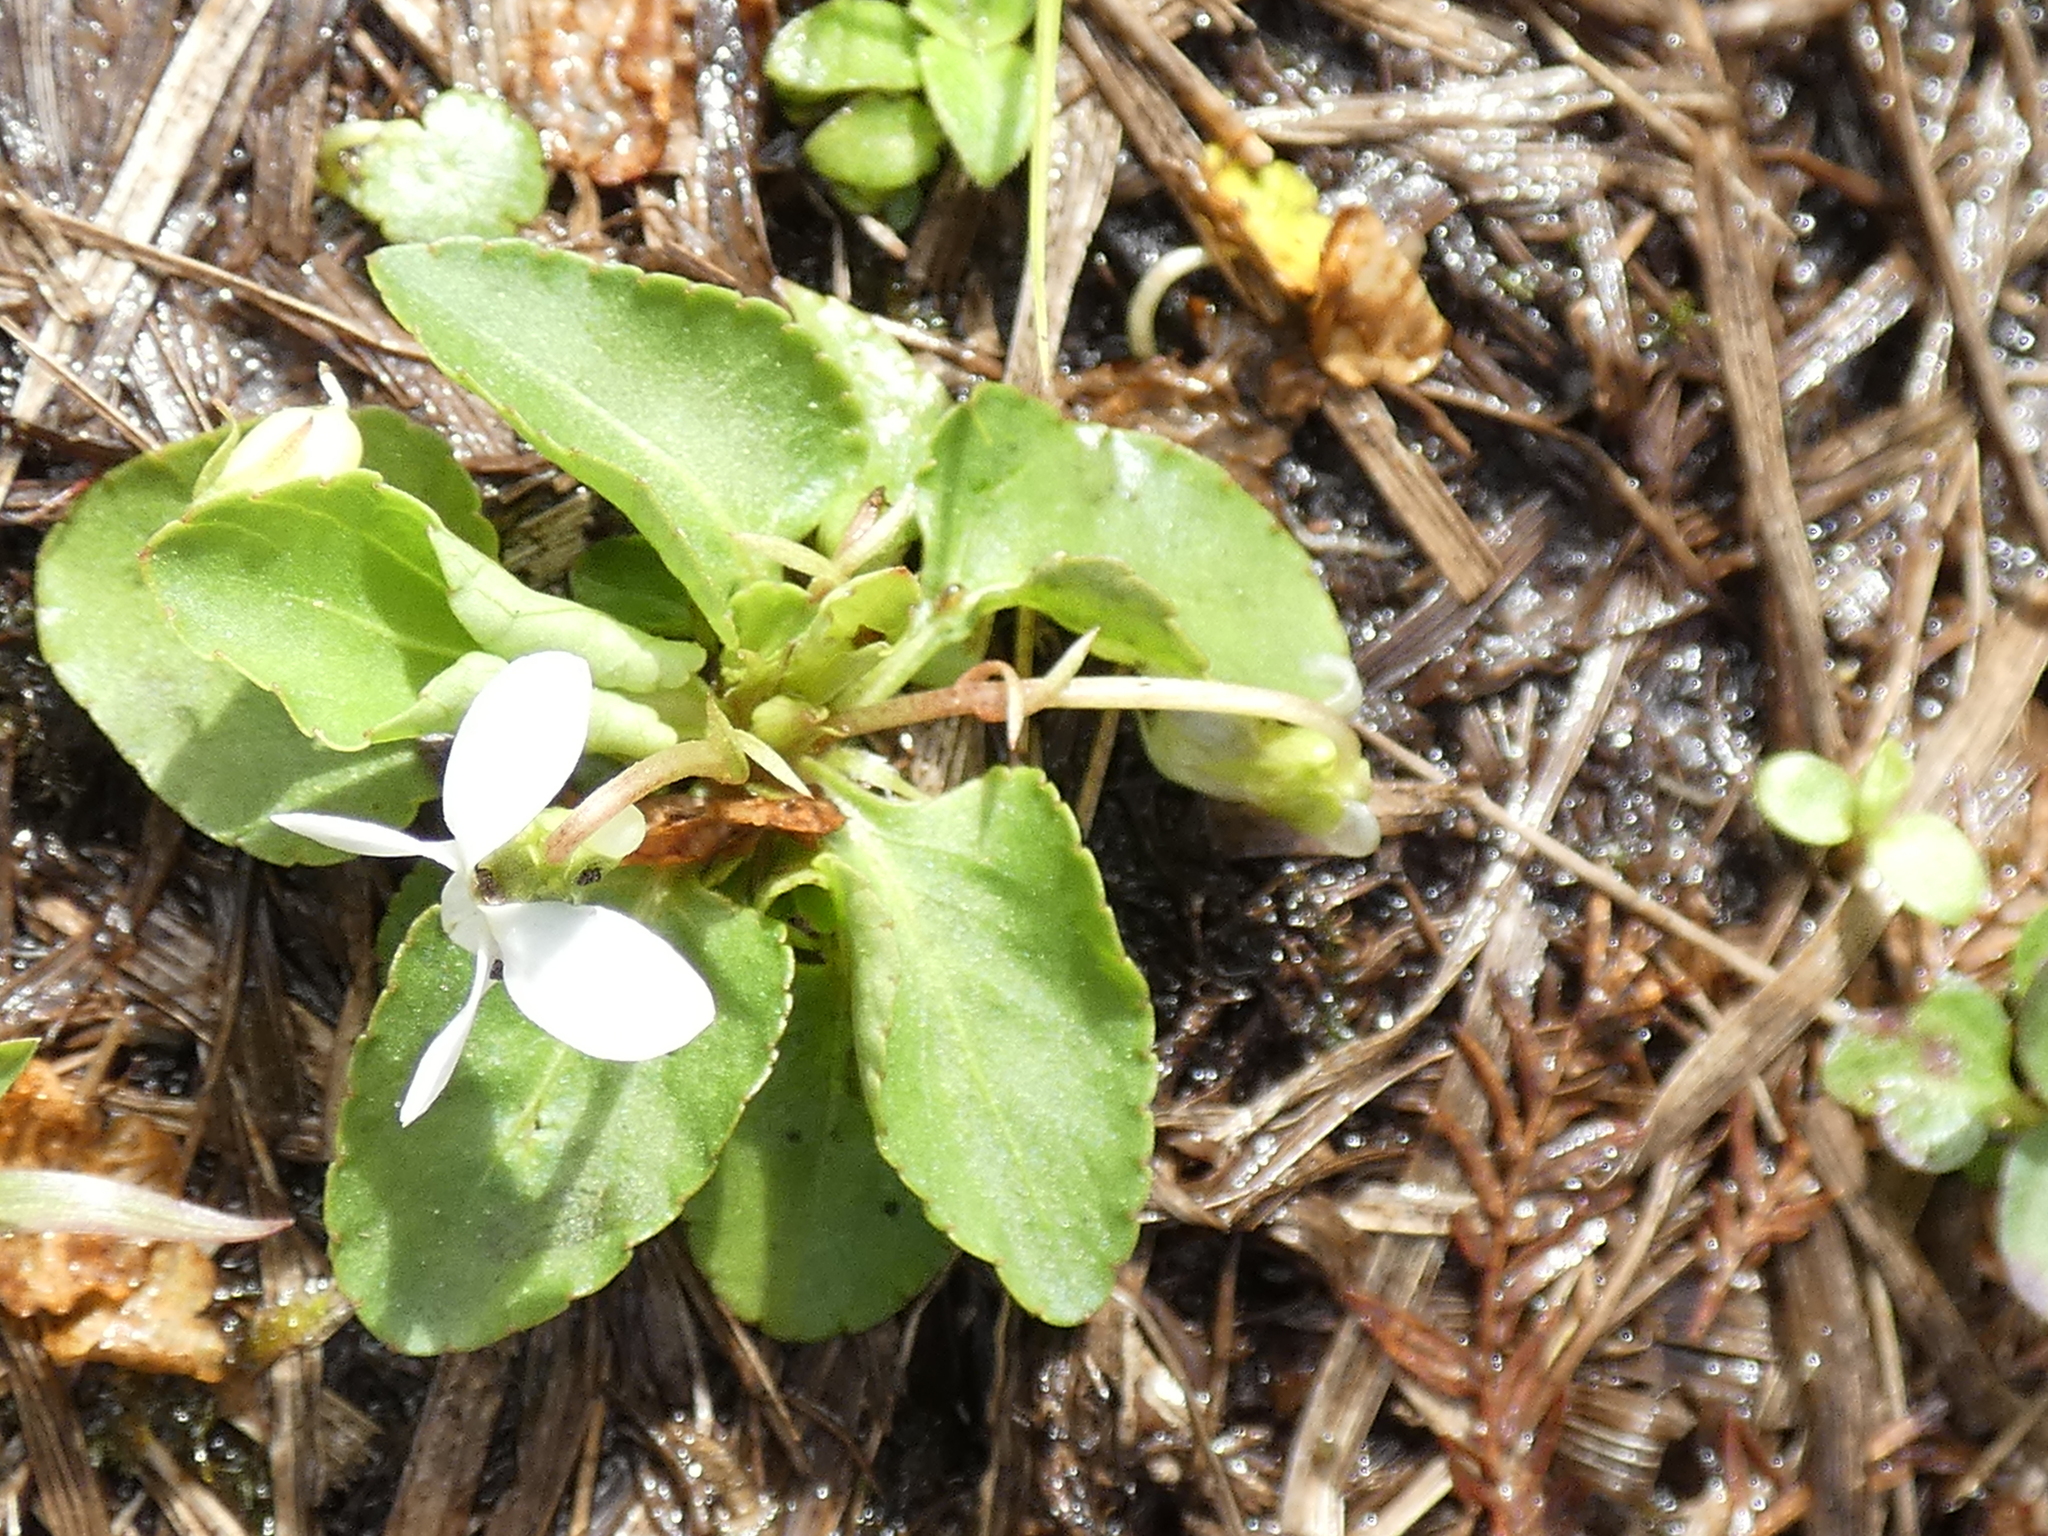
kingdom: Plantae
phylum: Tracheophyta
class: Magnoliopsida
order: Malpighiales
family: Violaceae
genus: Viola
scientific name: Viola primulifolia
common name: Primrose-leaf violet
